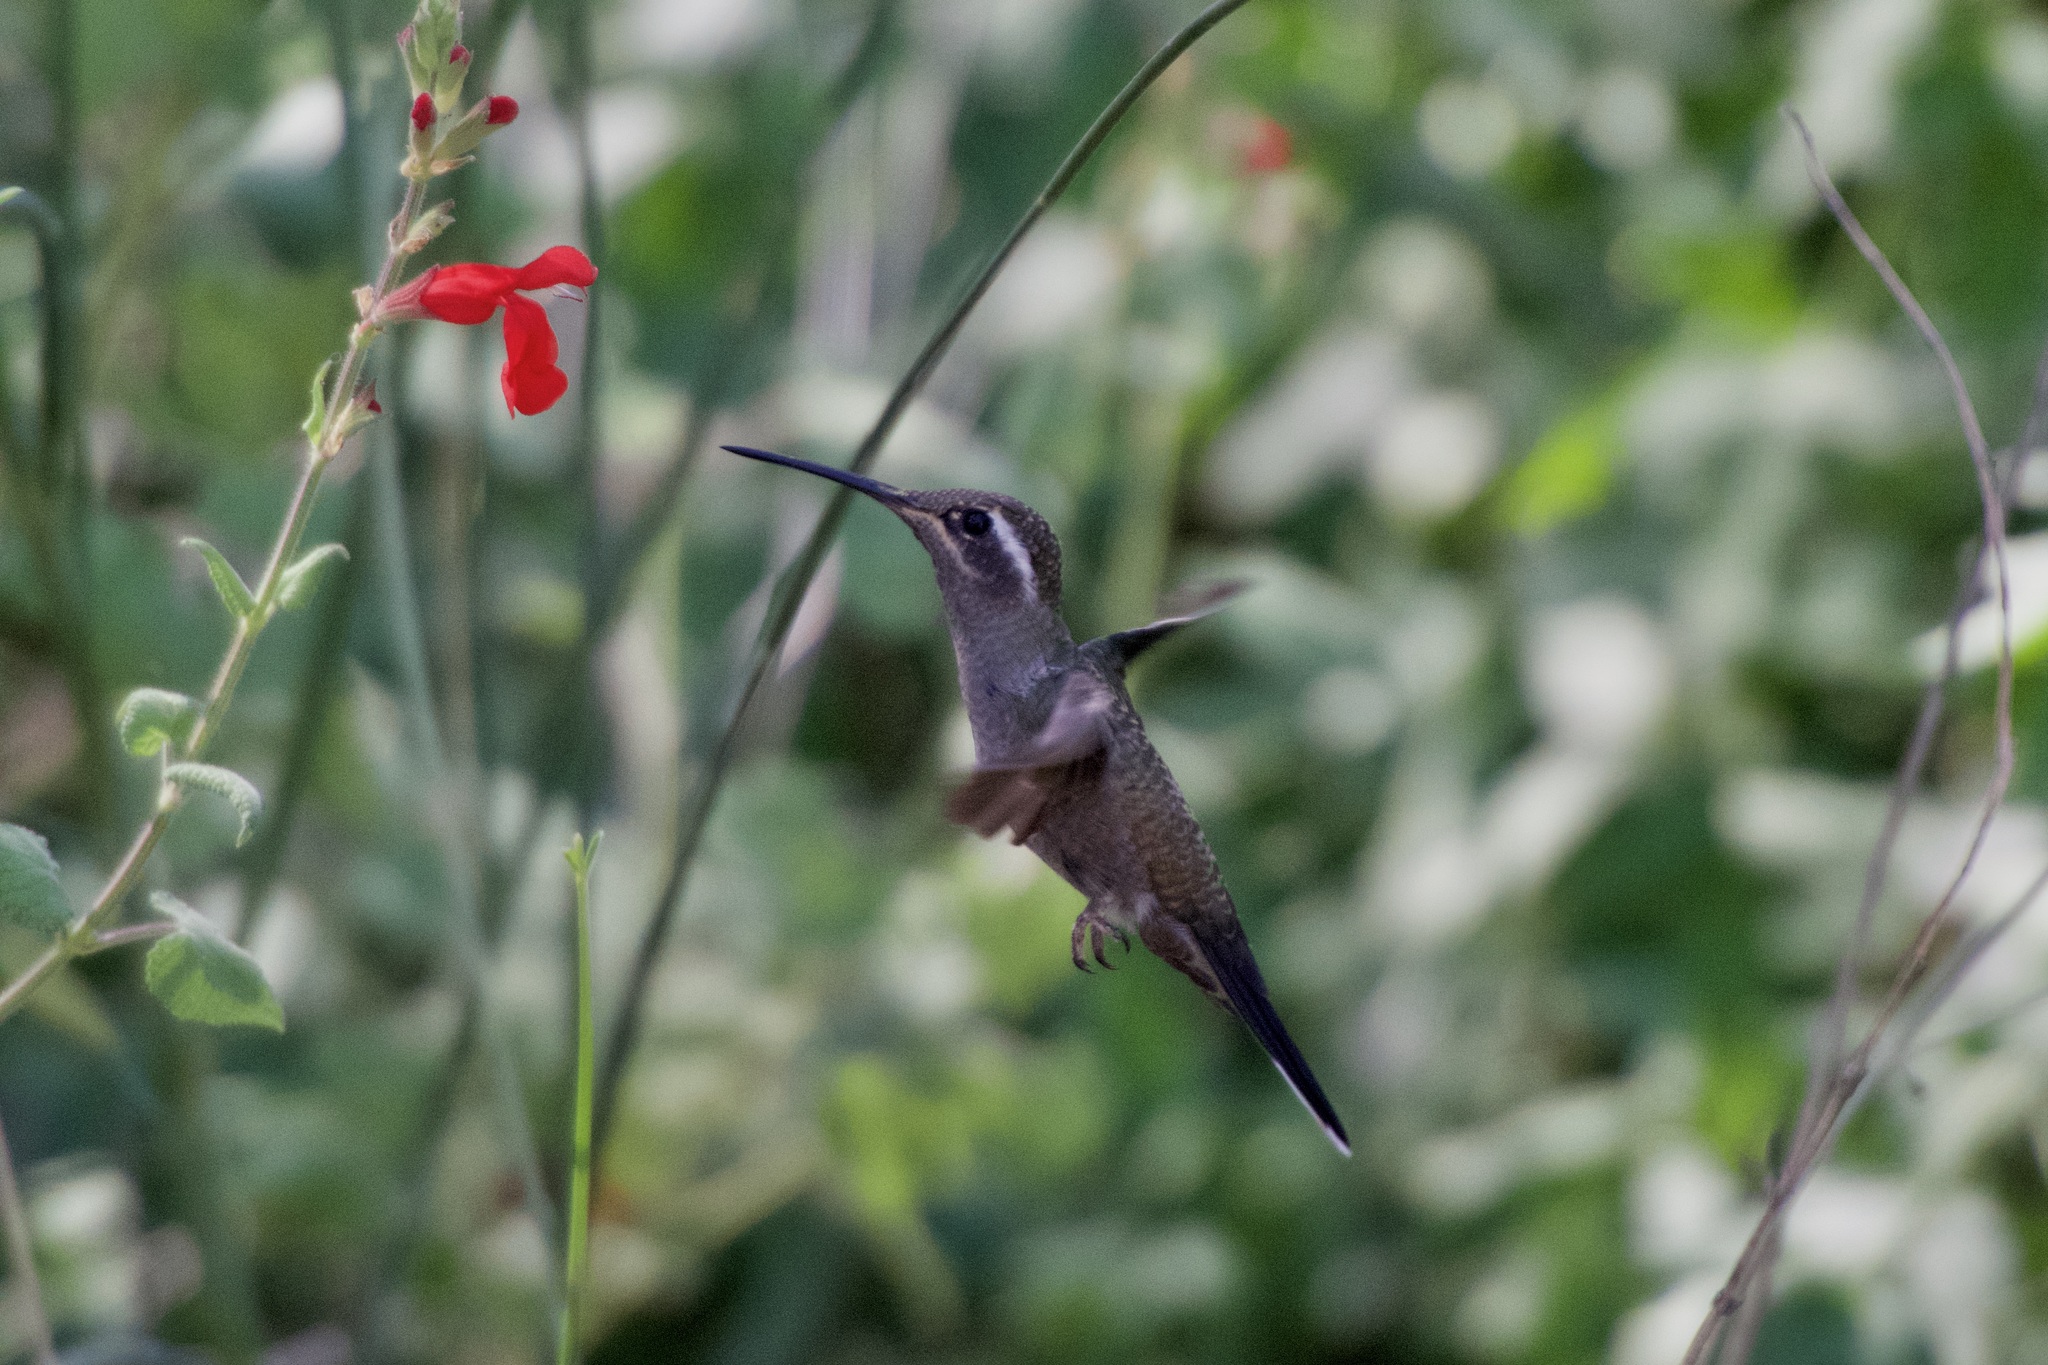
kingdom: Animalia
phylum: Chordata
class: Aves
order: Apodiformes
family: Trochilidae
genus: Eugenes
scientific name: Eugenes fulgens
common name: Magnificent hummingbird
